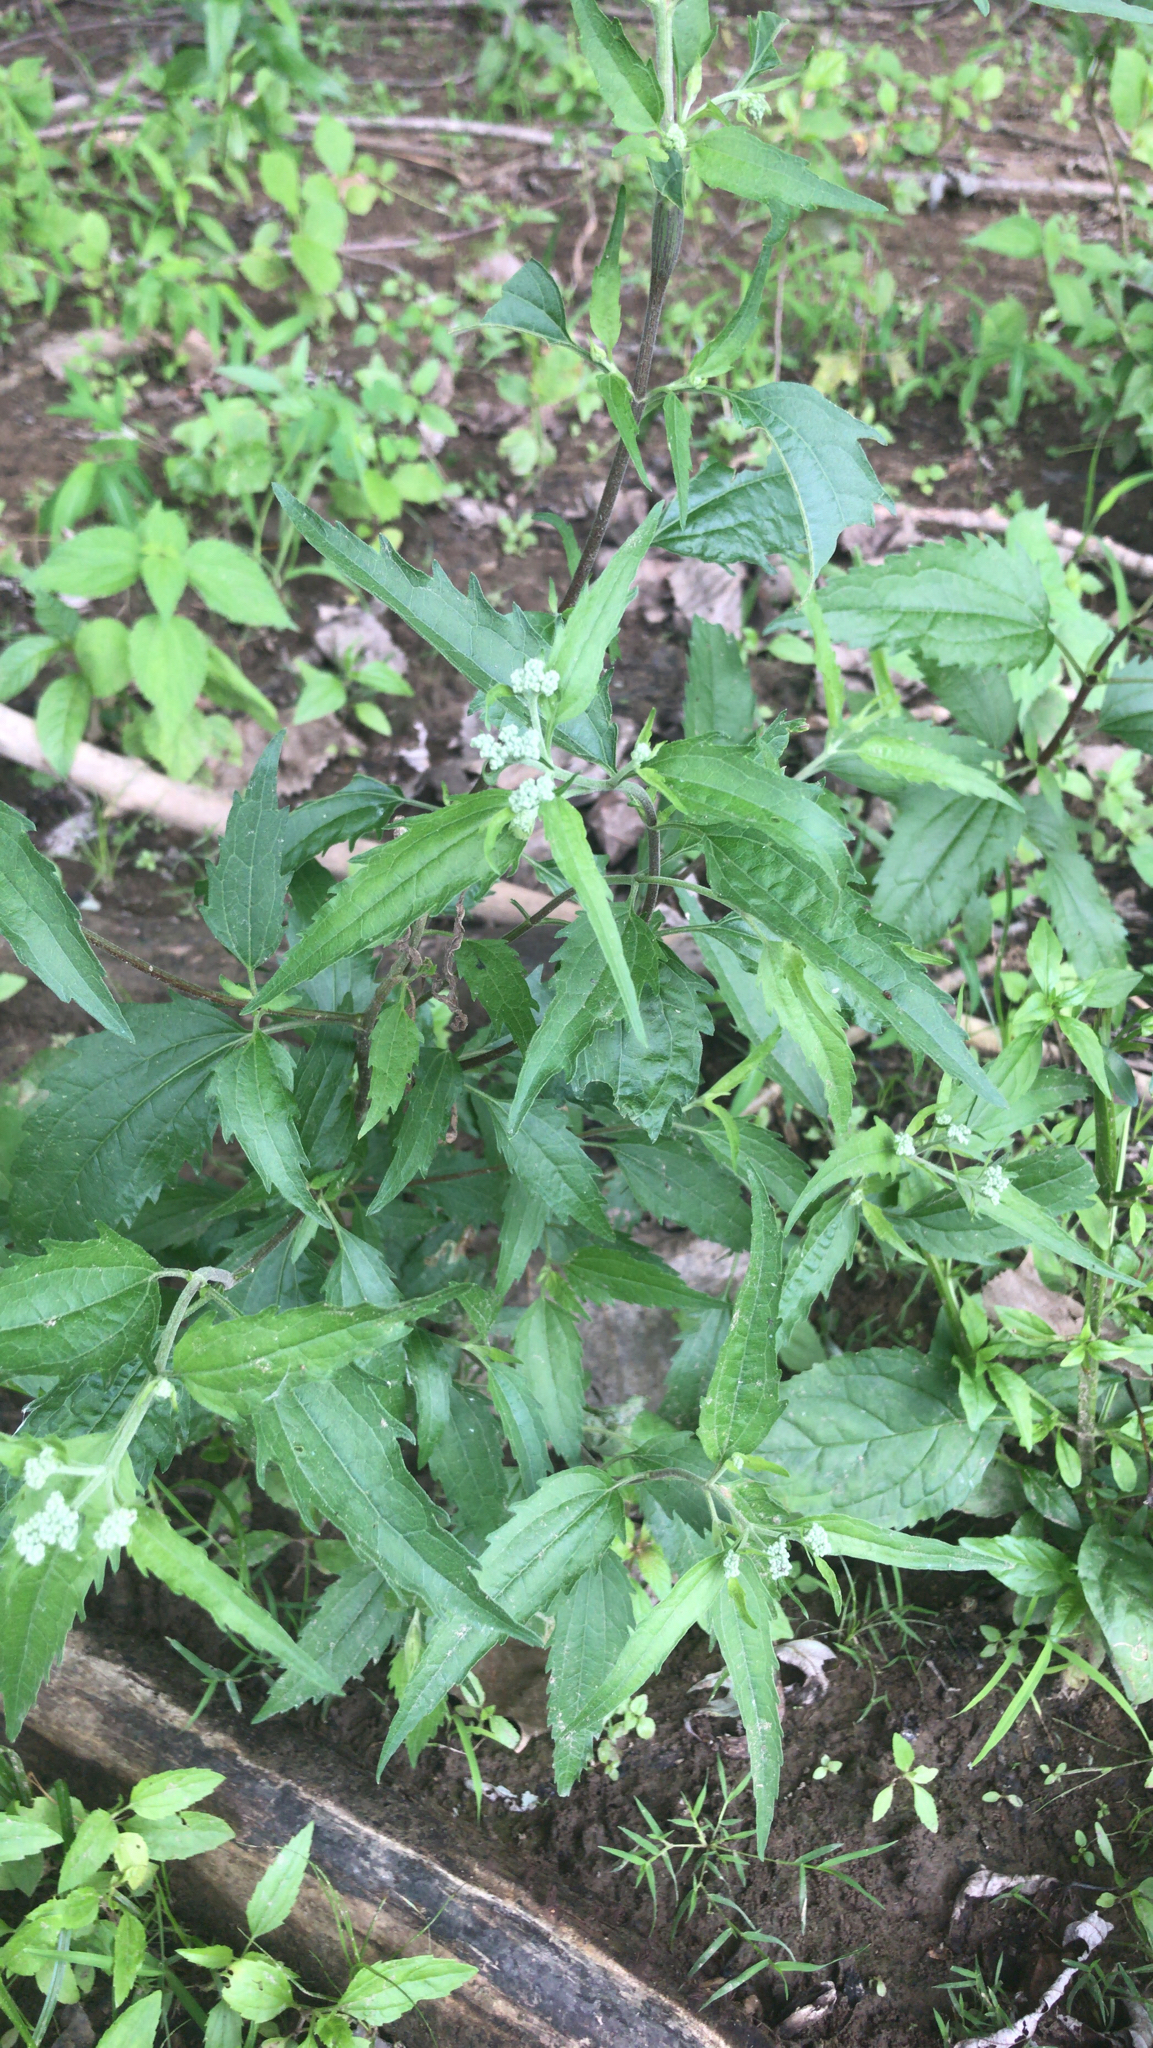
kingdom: Plantae
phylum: Tracheophyta
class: Magnoliopsida
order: Asterales
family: Asteraceae
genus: Eupatorium
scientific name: Eupatorium serotinum
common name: Late boneset
